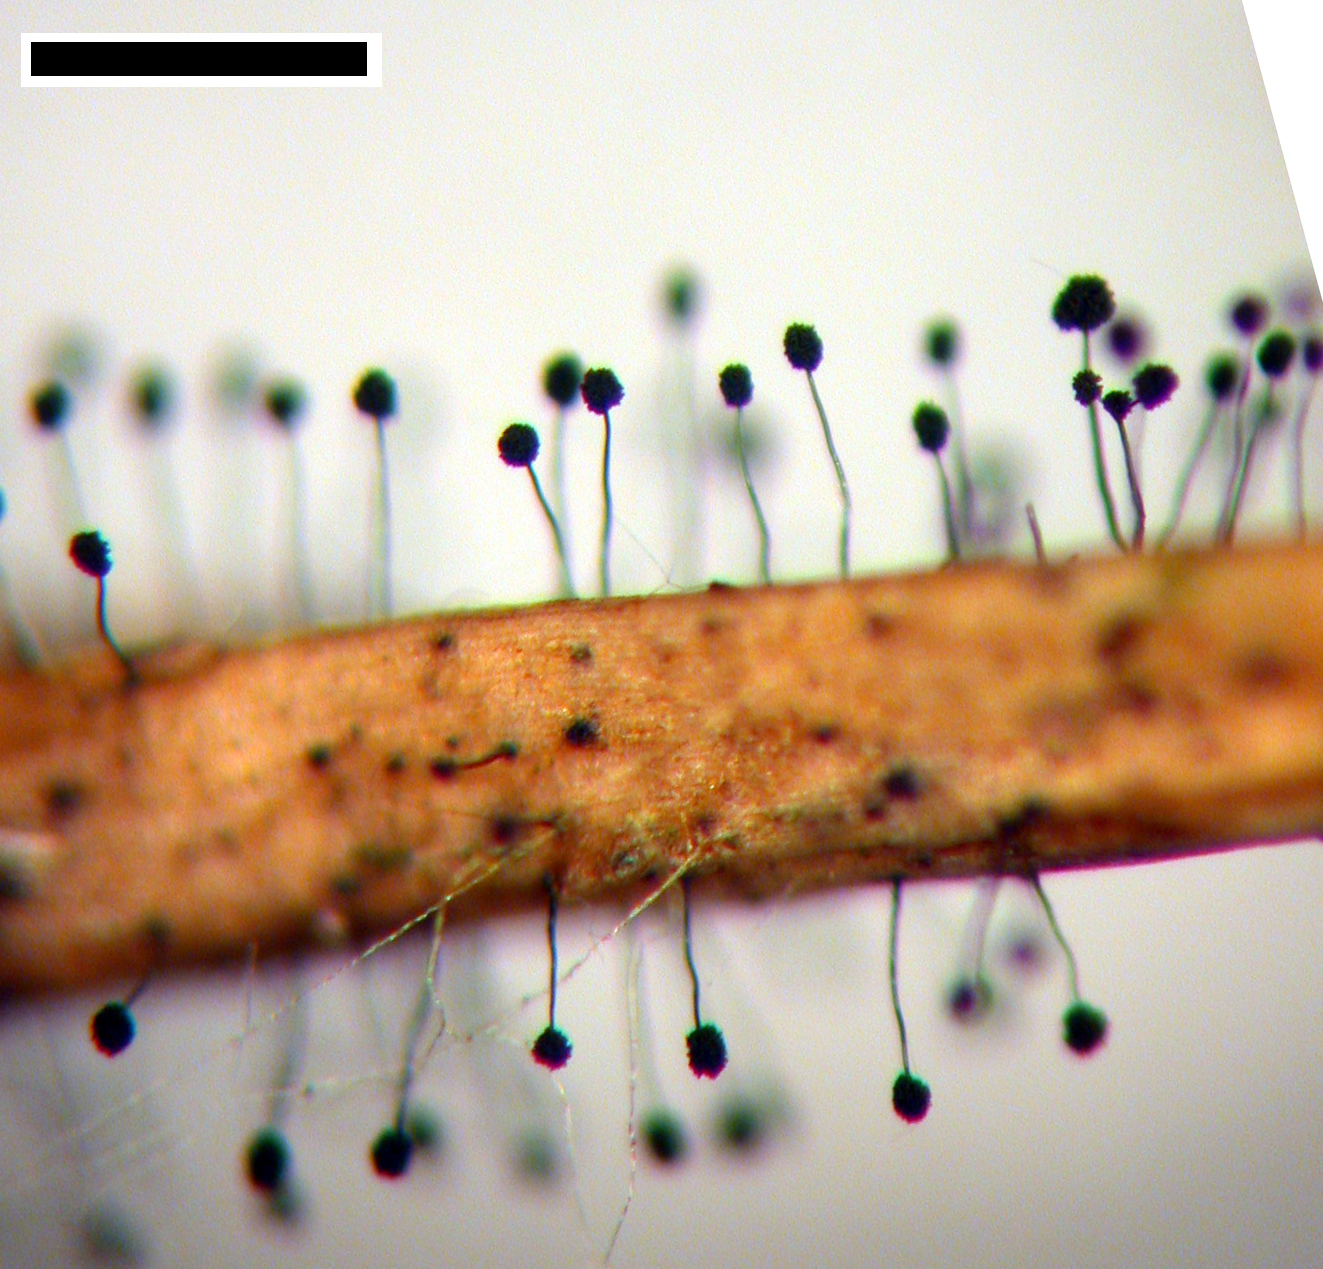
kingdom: Fungi
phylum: Ascomycota
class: Dothideomycetes
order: Pleosporales
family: Periconiaceae
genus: Periconia
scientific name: Periconia atra
